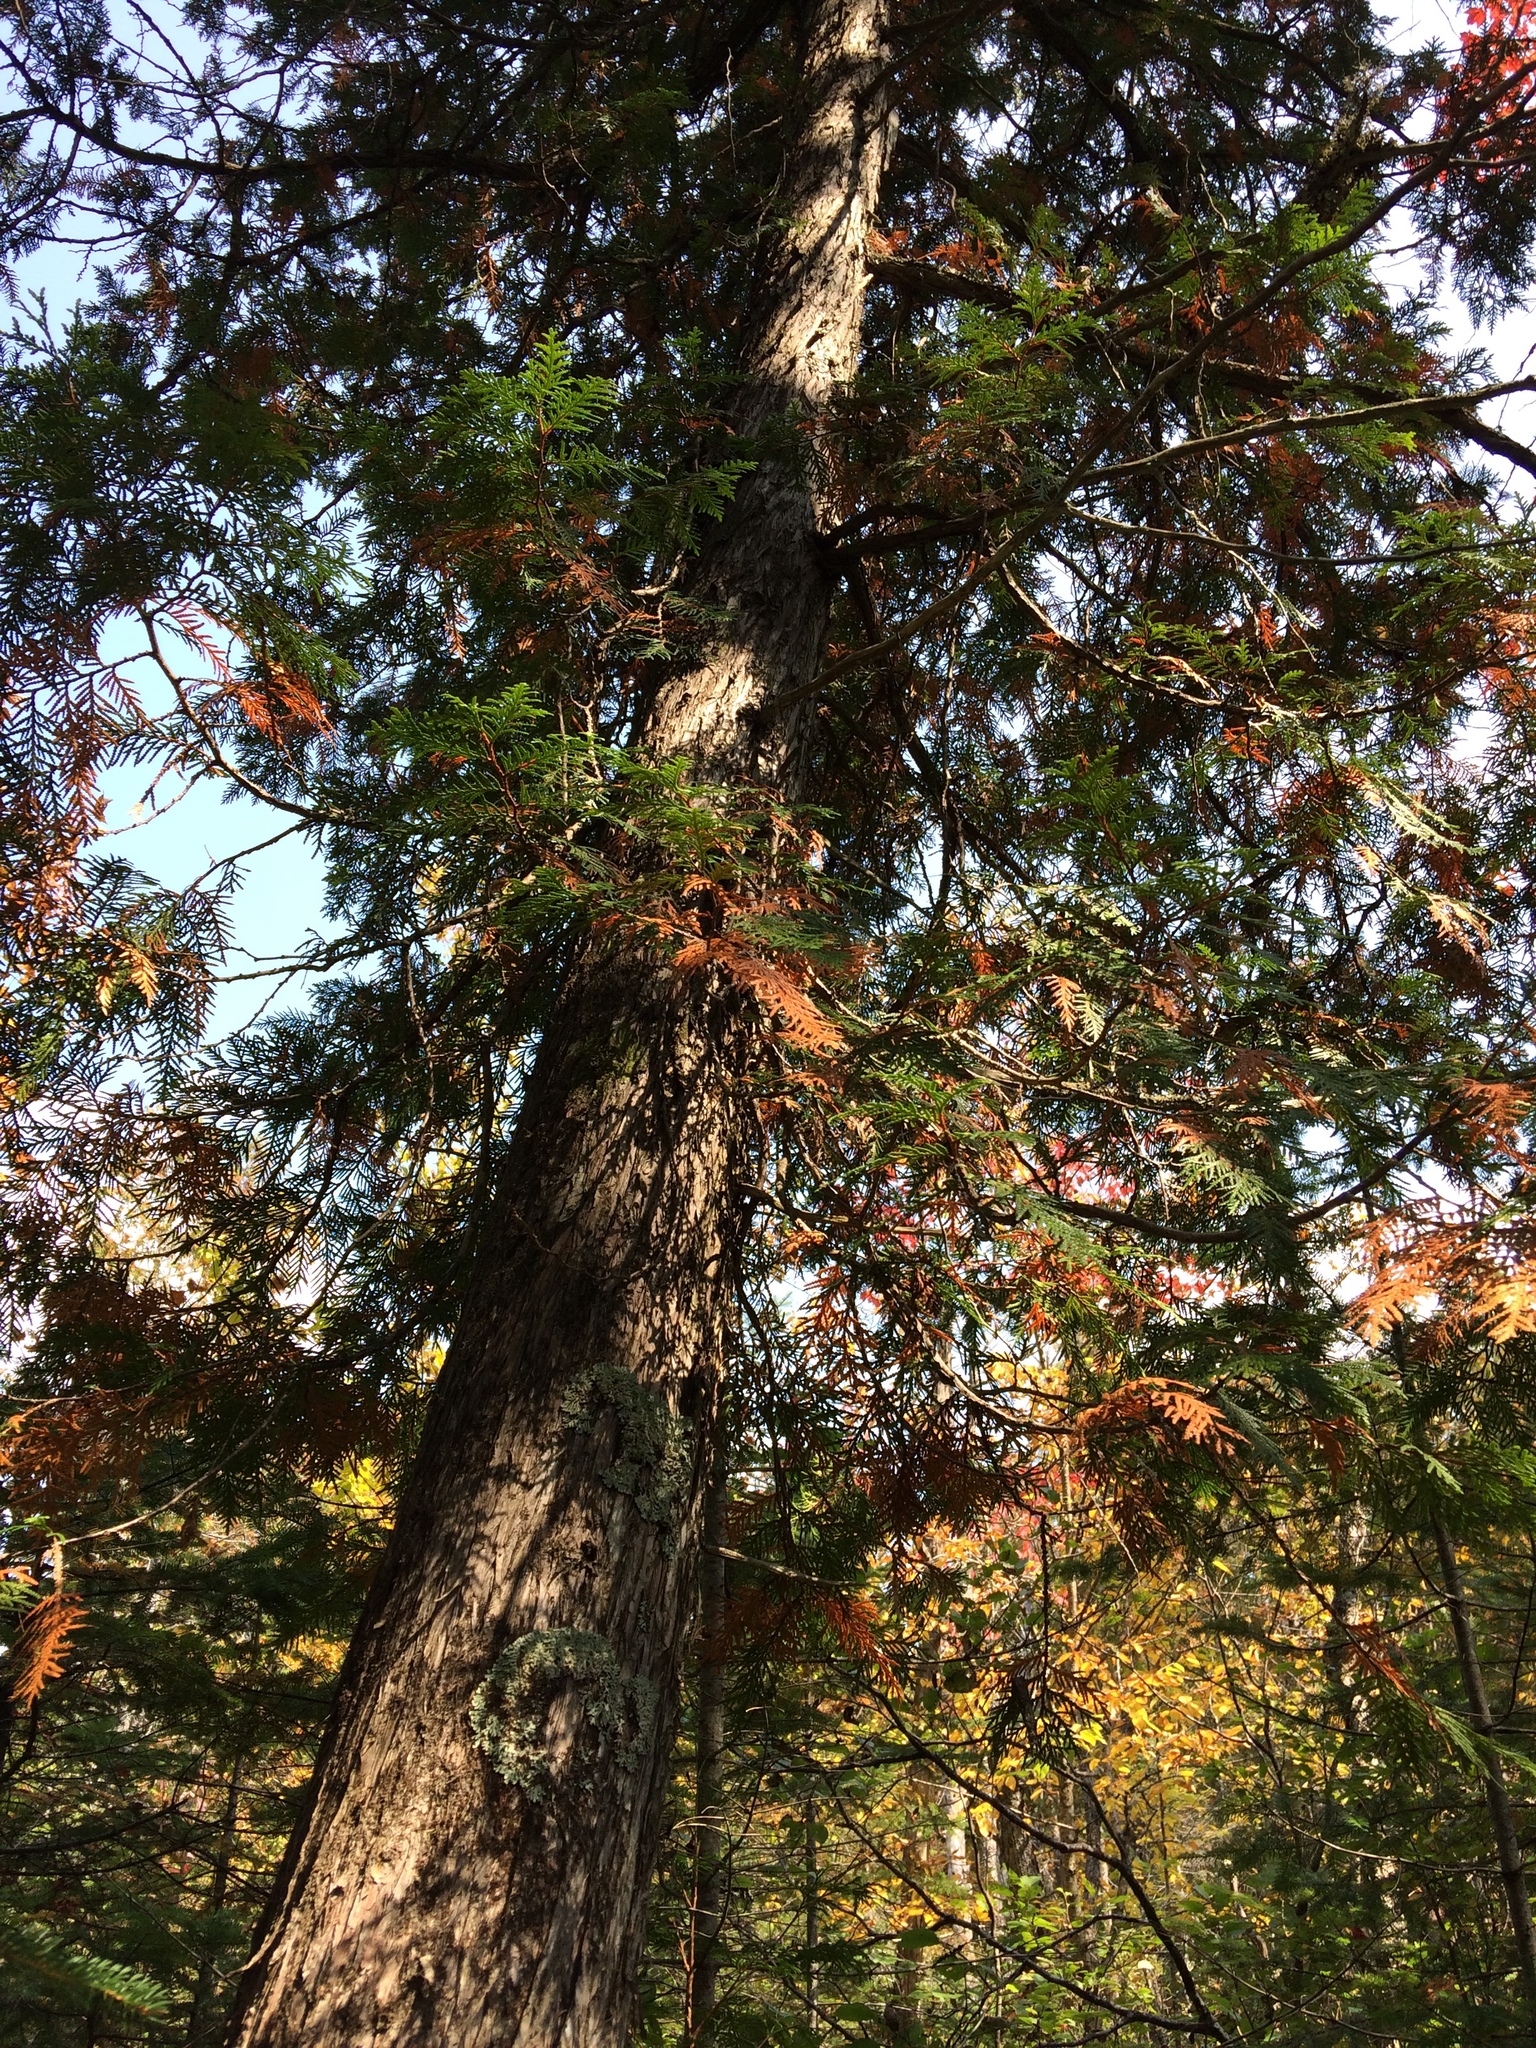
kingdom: Plantae
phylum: Tracheophyta
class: Pinopsida
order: Pinales
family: Cupressaceae
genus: Thuja
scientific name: Thuja occidentalis
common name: Northern white-cedar
